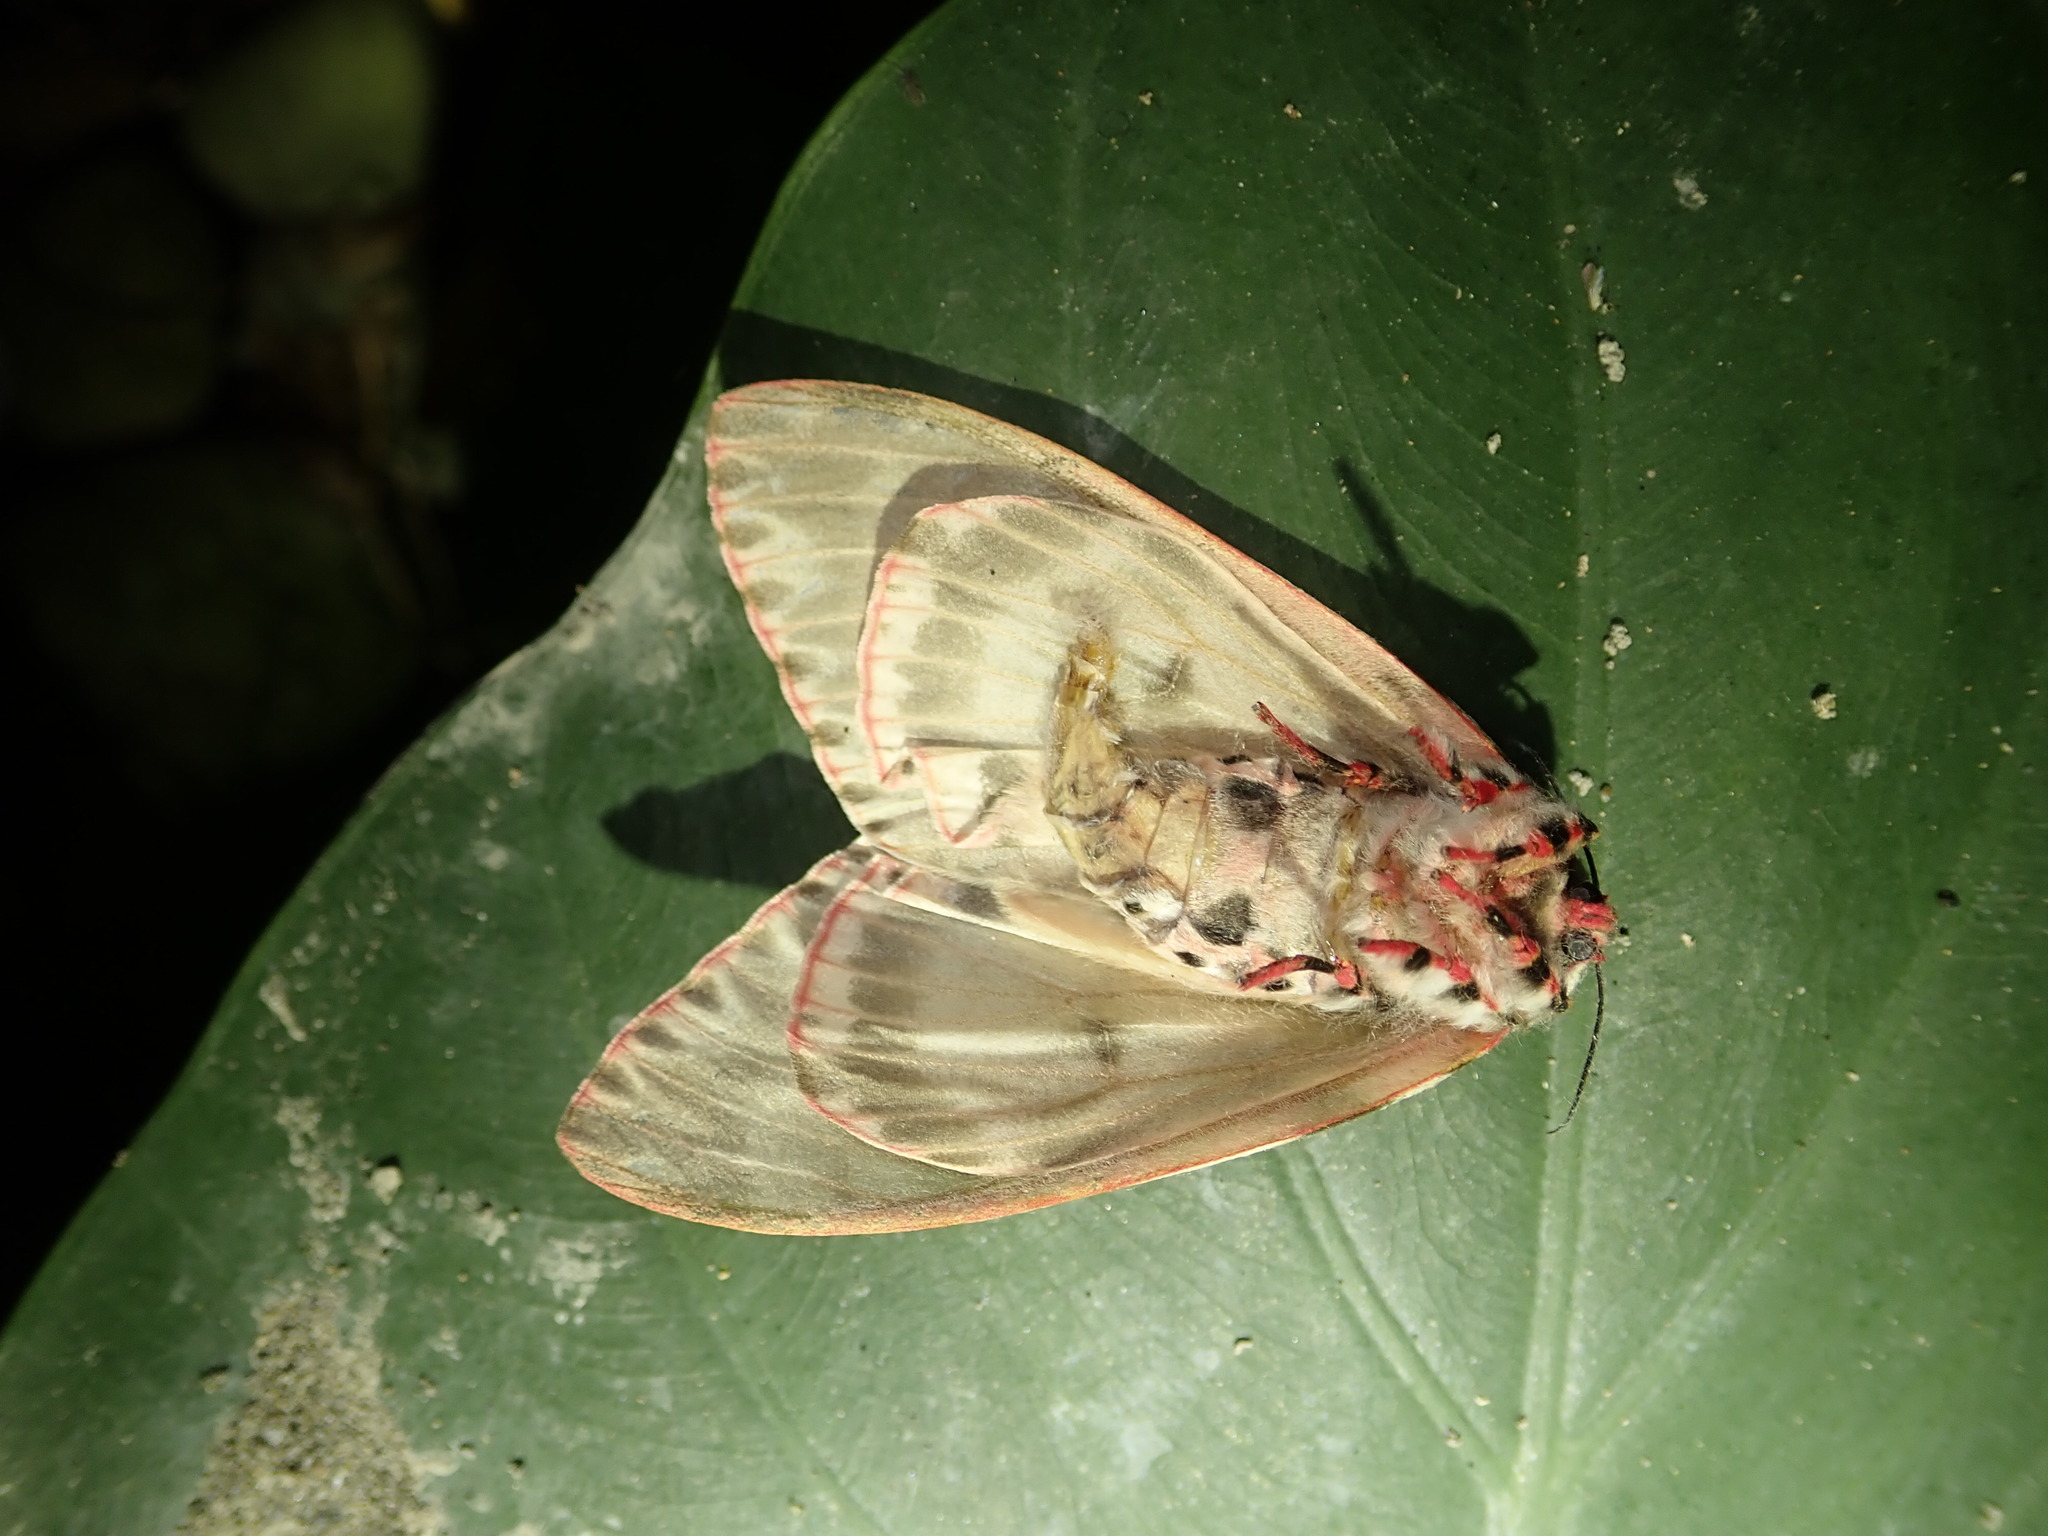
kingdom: Animalia
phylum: Arthropoda
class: Insecta
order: Lepidoptera
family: Erebidae
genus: Lymantria
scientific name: Lymantria mathura
